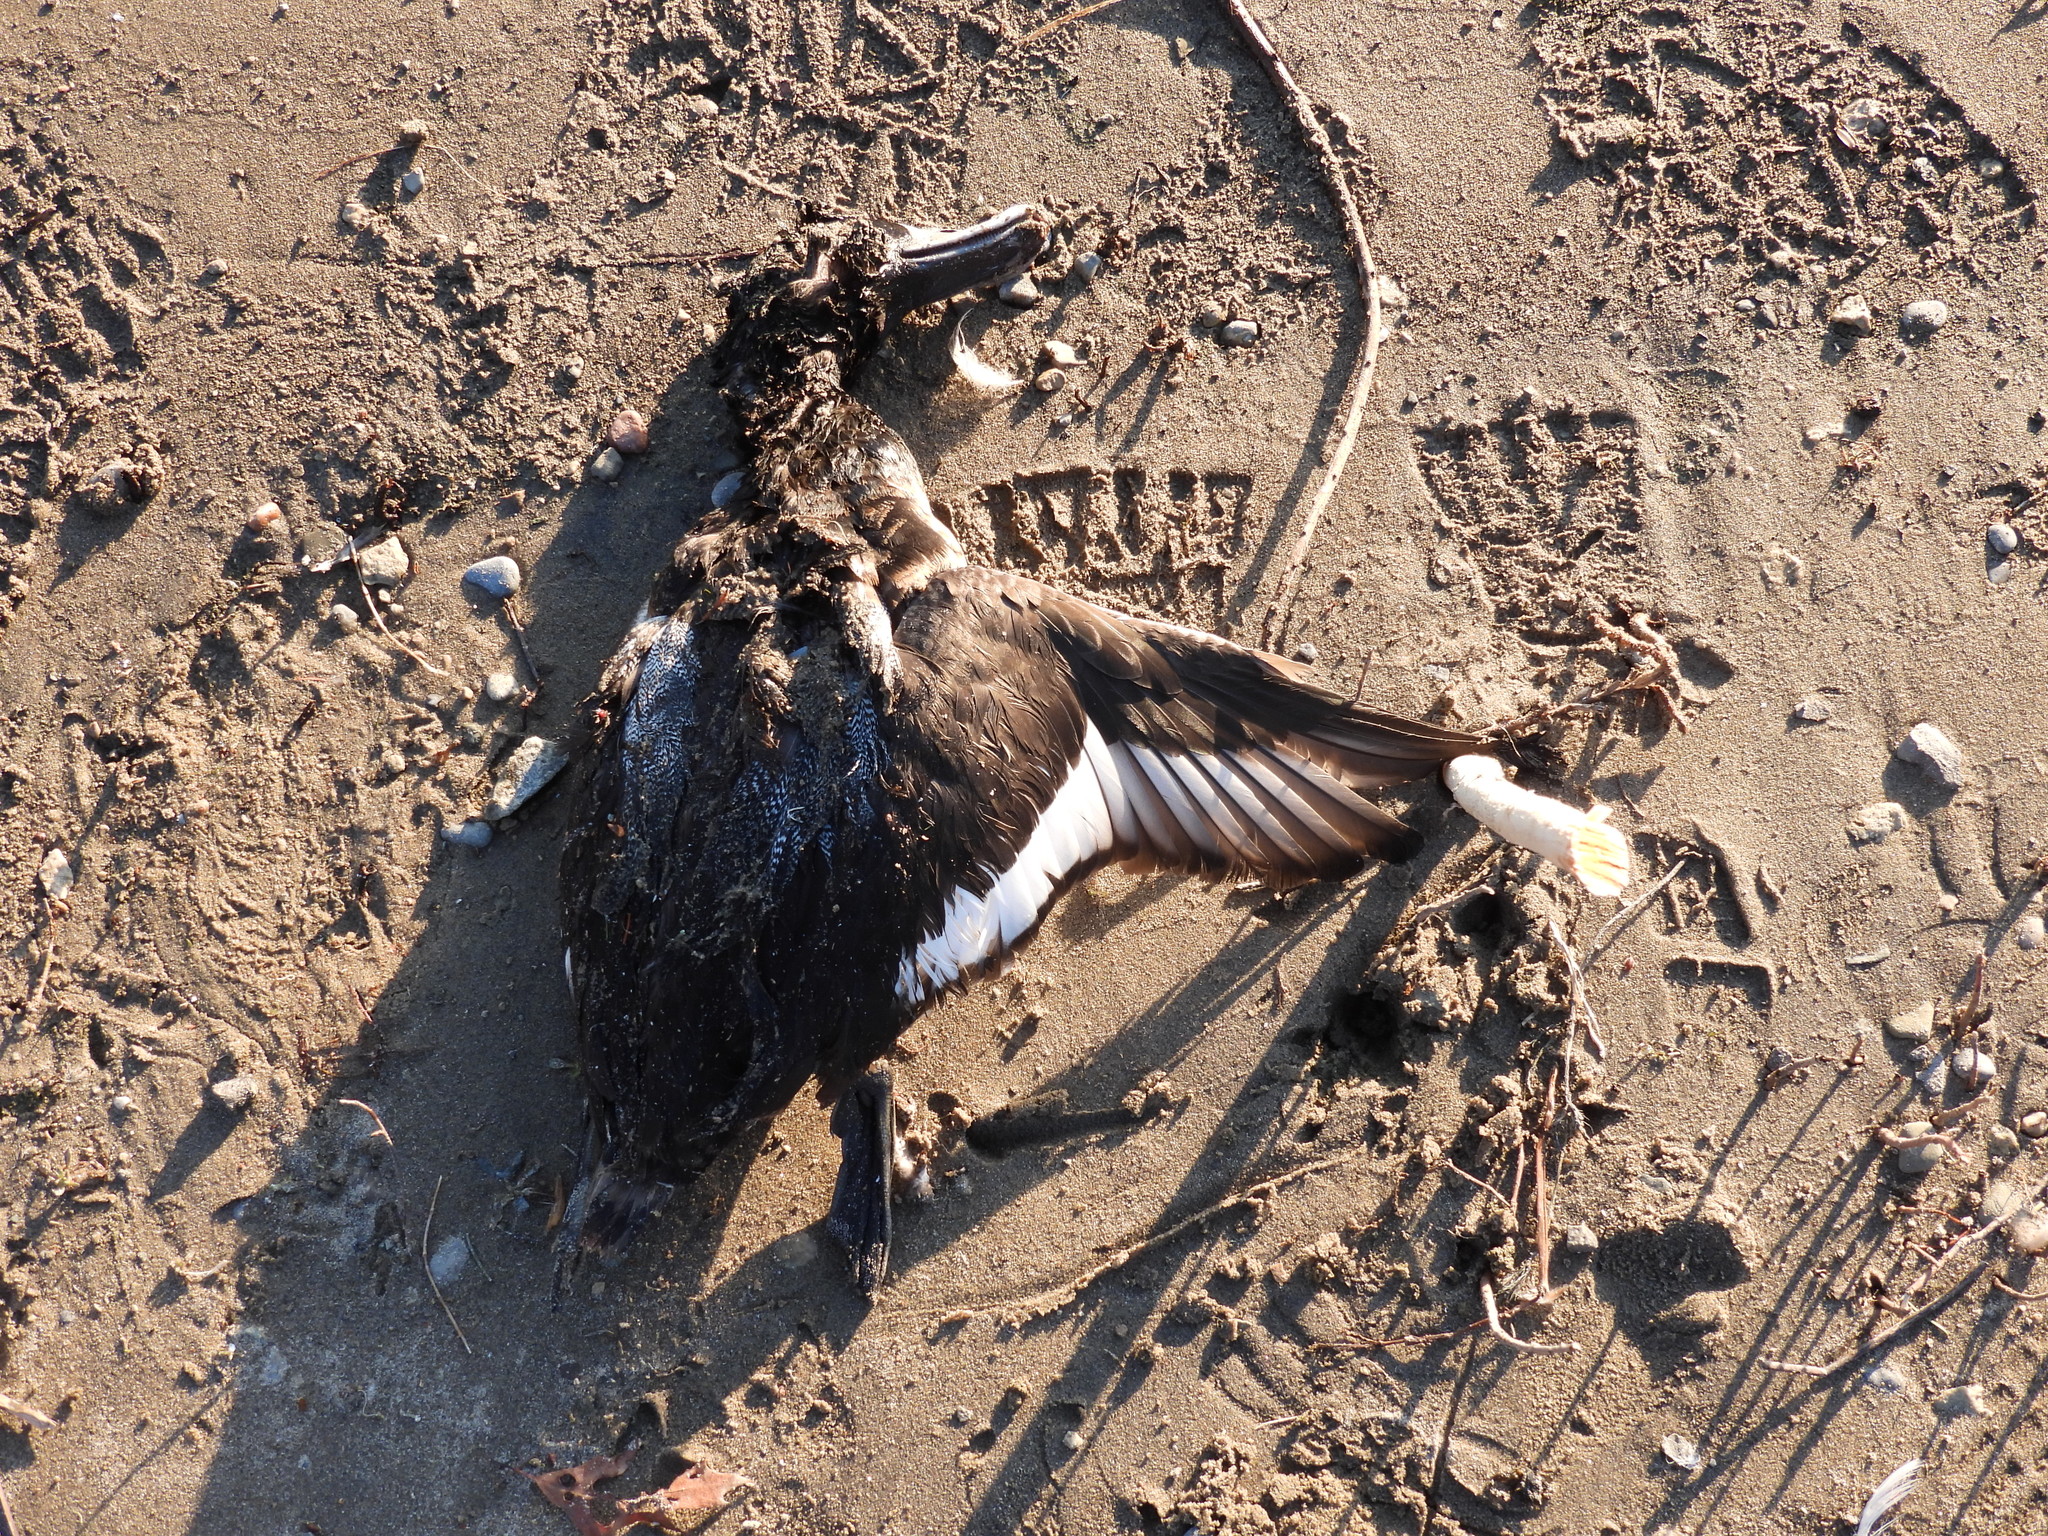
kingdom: Animalia
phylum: Chordata
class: Aves
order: Anseriformes
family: Anatidae
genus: Aythya
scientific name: Aythya marila
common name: Greater scaup
